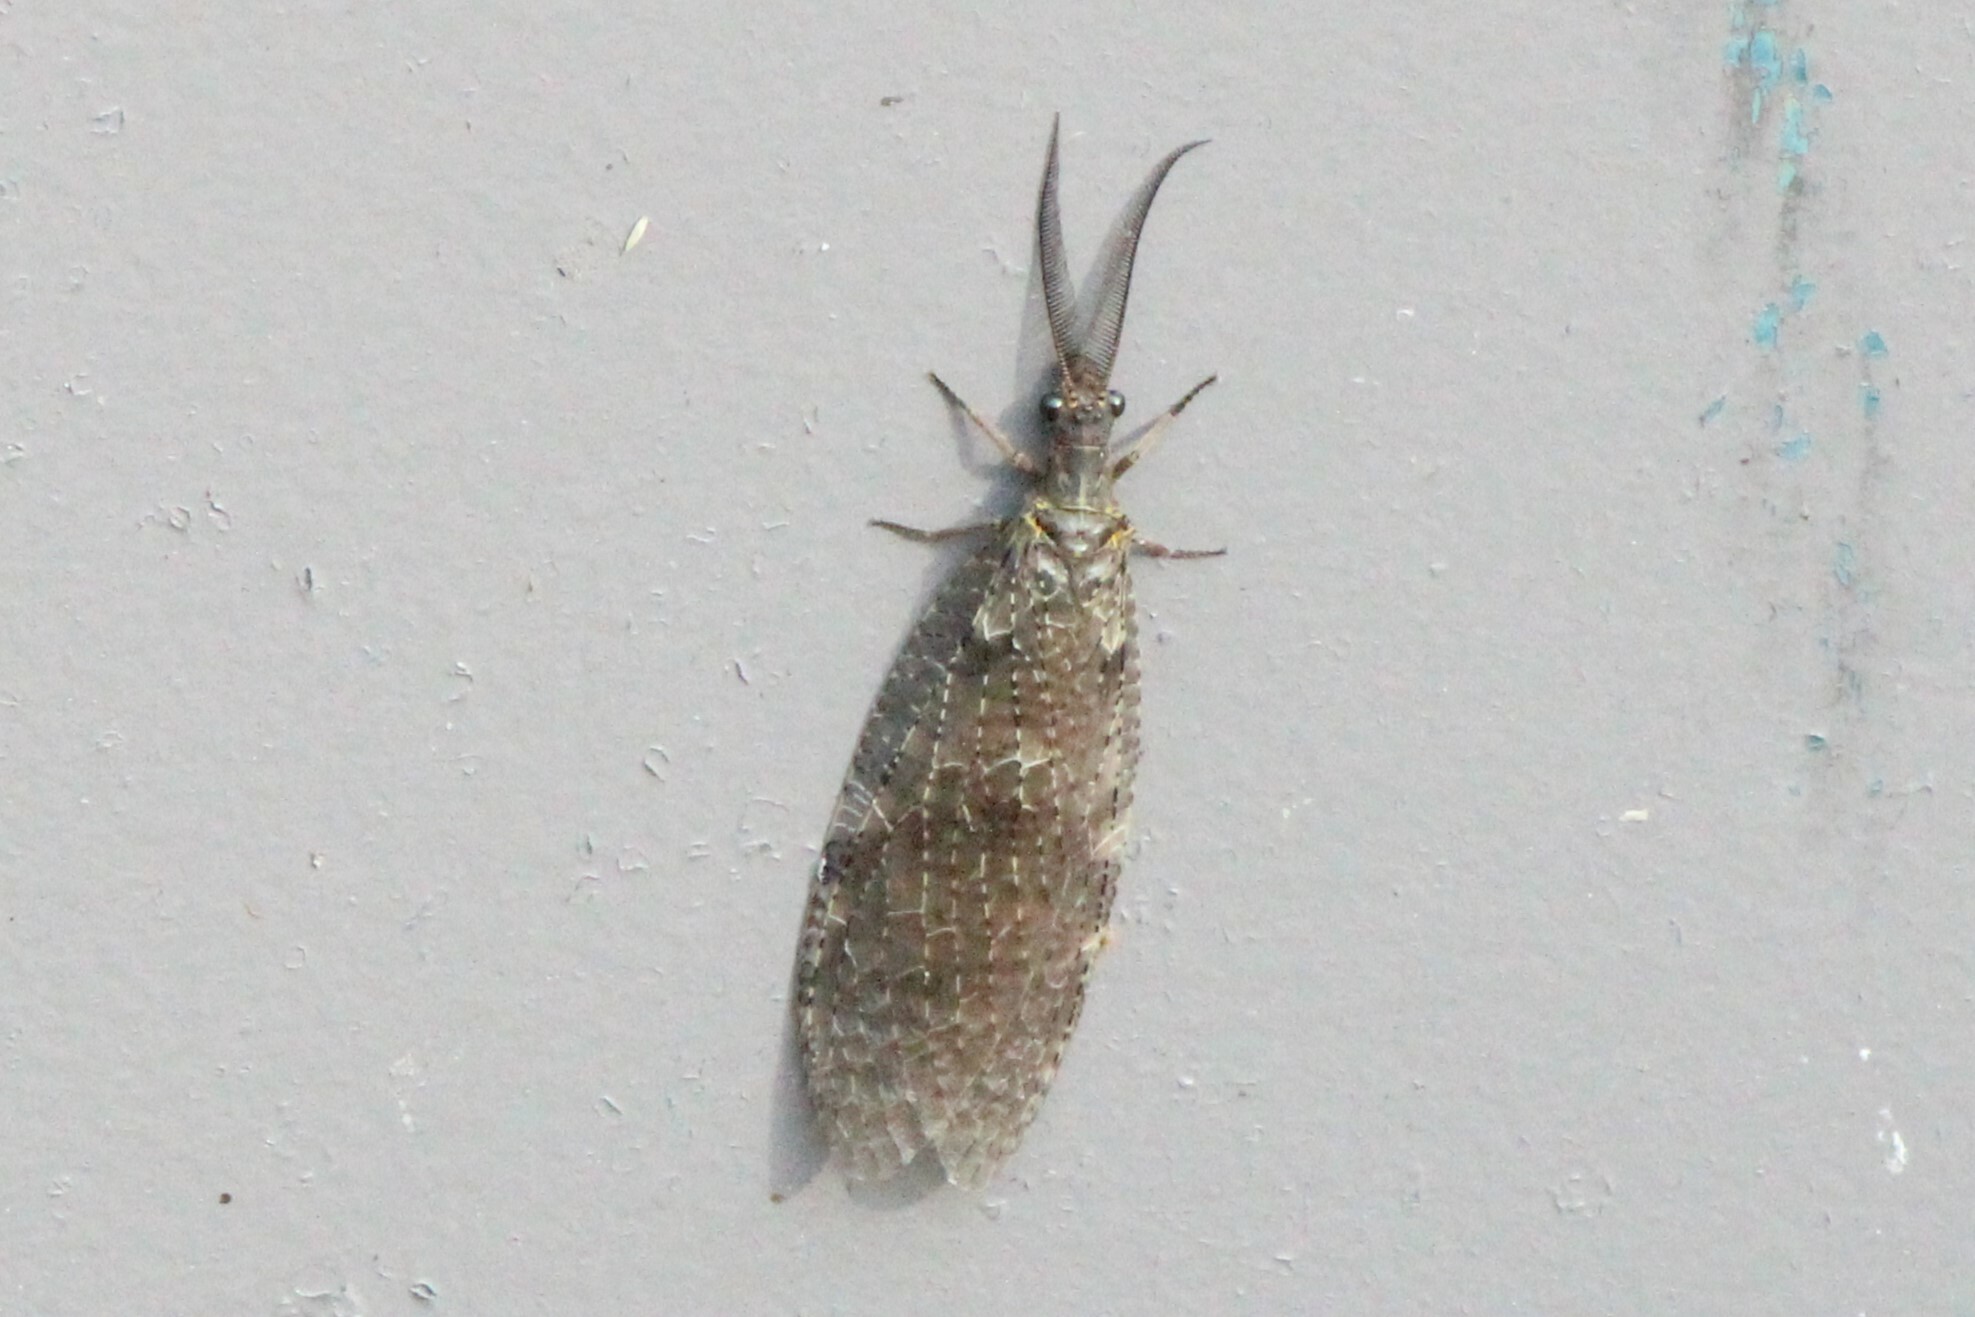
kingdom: Animalia
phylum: Arthropoda
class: Insecta
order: Megaloptera
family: Corydalidae
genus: Chauliodes
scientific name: Chauliodes pectinicornis
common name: Summer fishfly
